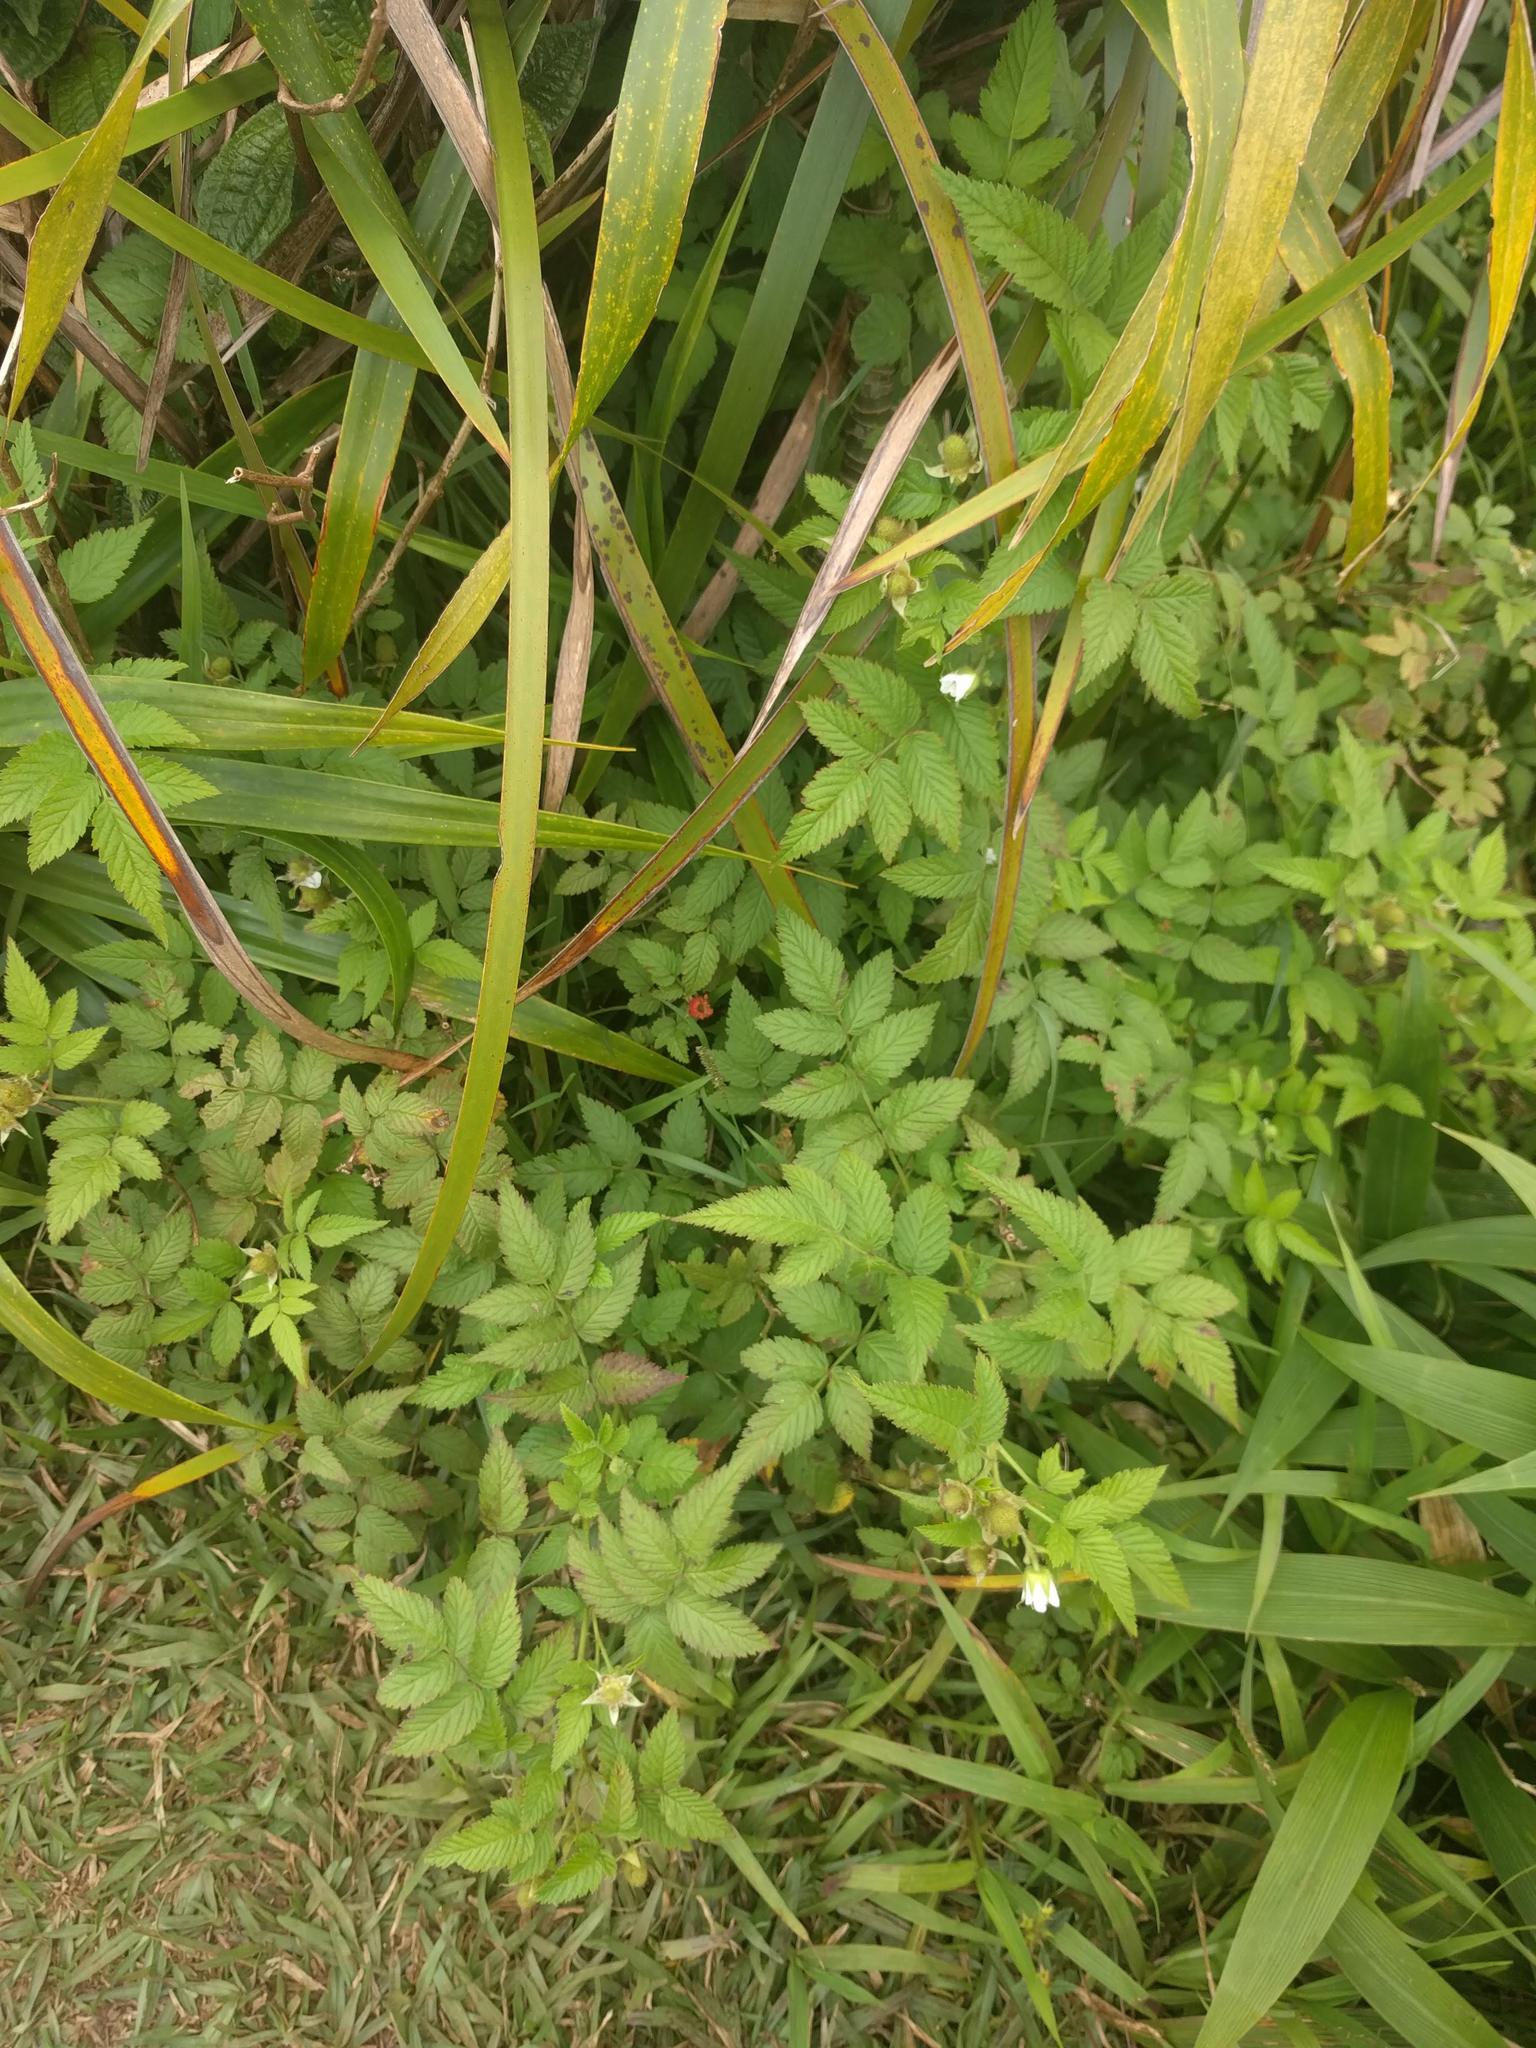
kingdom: Plantae
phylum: Tracheophyta
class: Magnoliopsida
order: Rosales
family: Rosaceae
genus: Rubus
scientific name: Rubus rosifolius
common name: Roseleaf raspberry
